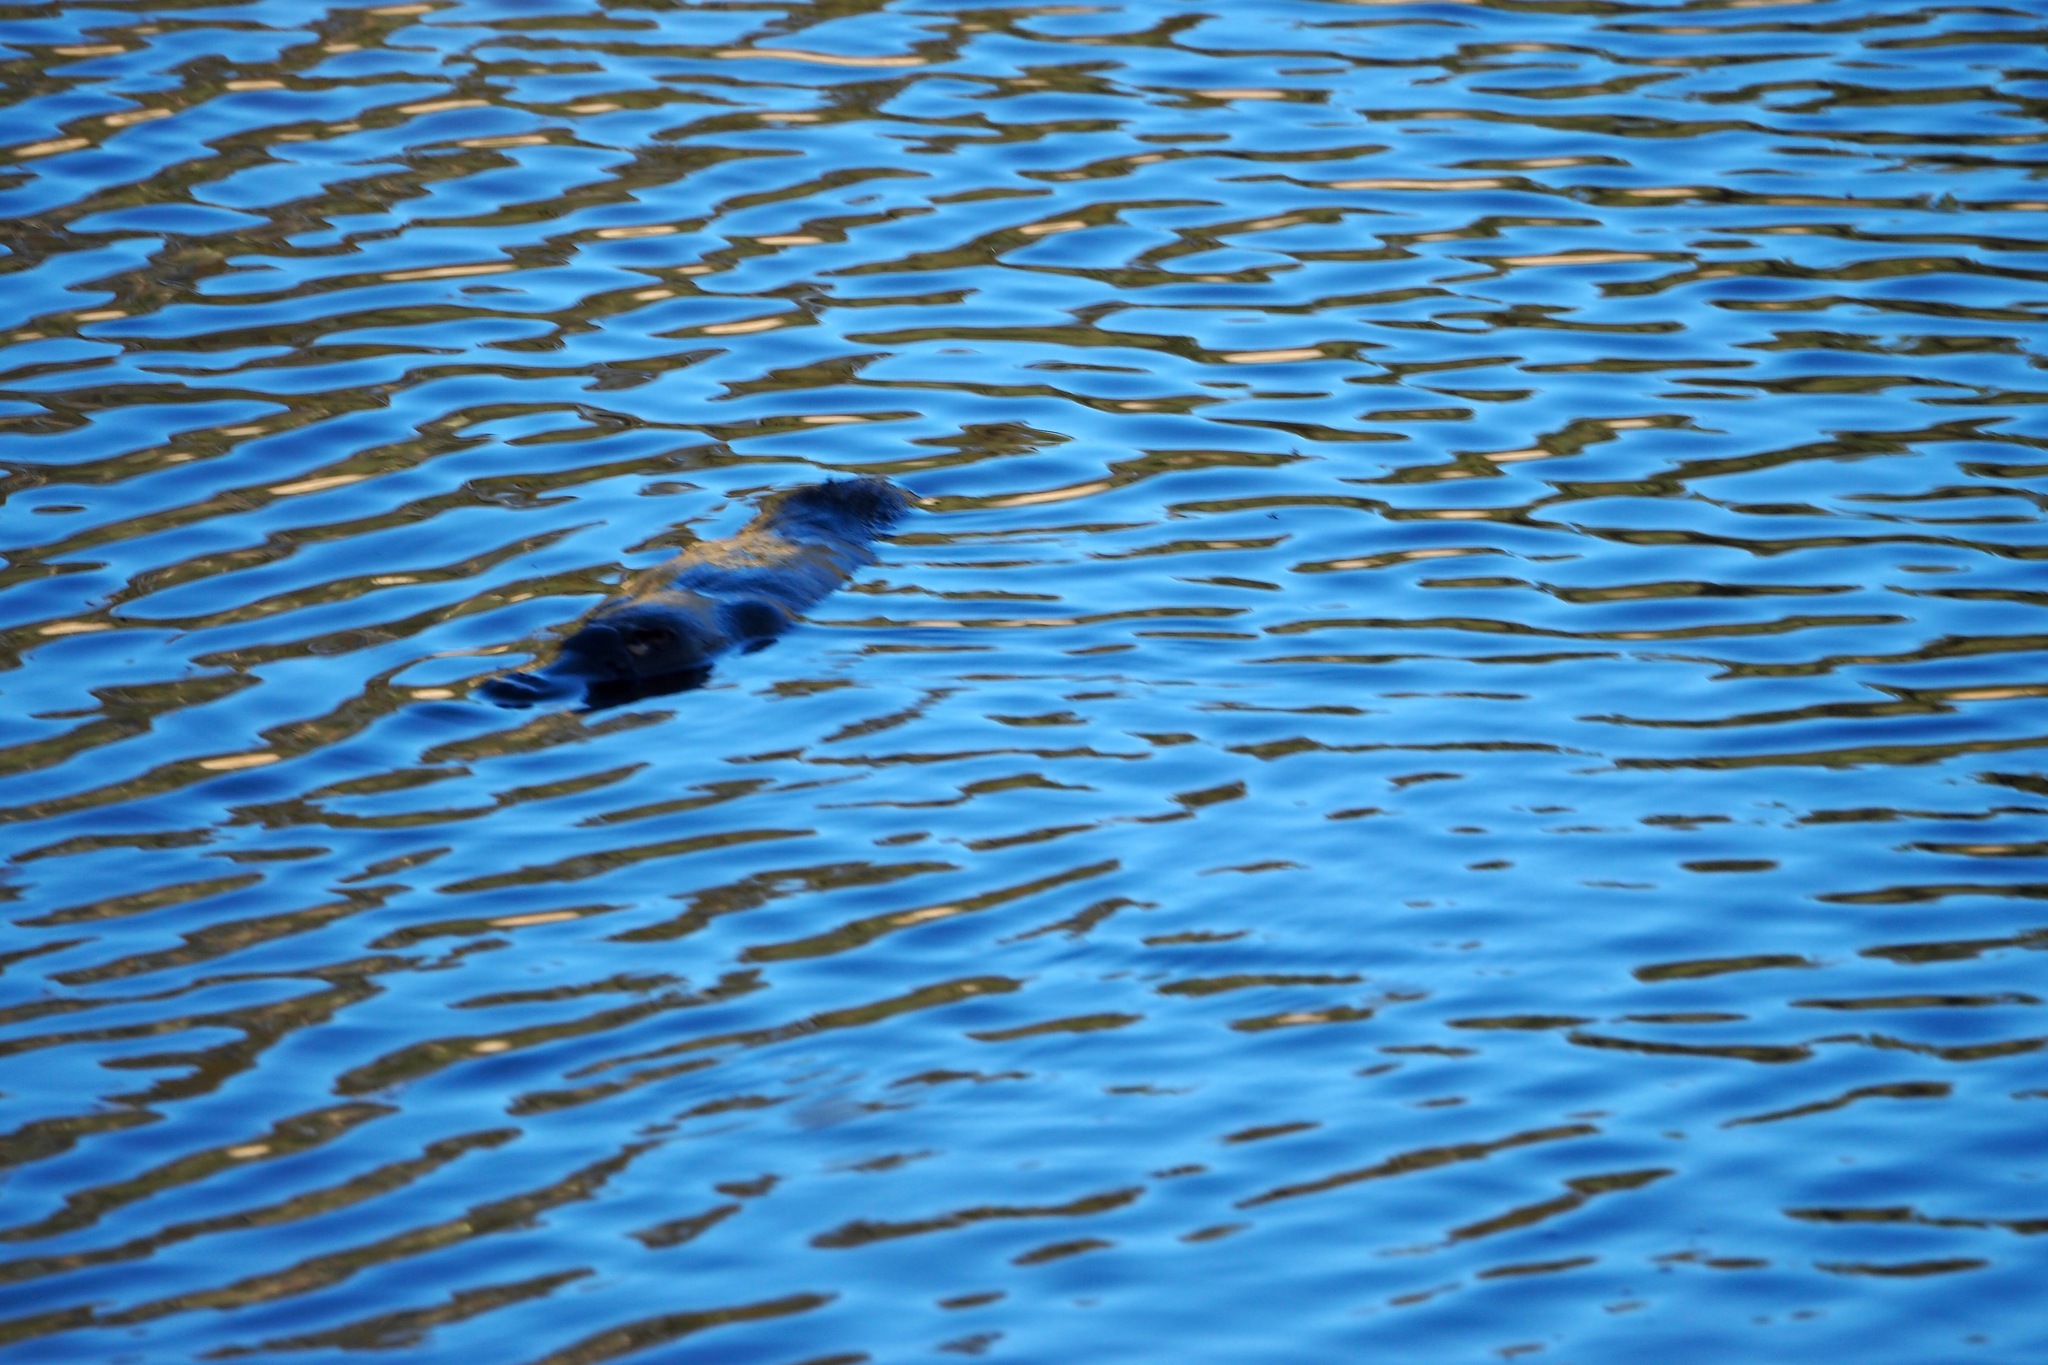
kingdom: Animalia
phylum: Chordata
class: Mammalia
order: Monotremata
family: Ornithorhynchidae
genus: Ornithorhynchus
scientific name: Ornithorhynchus anatinus
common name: Platypus
